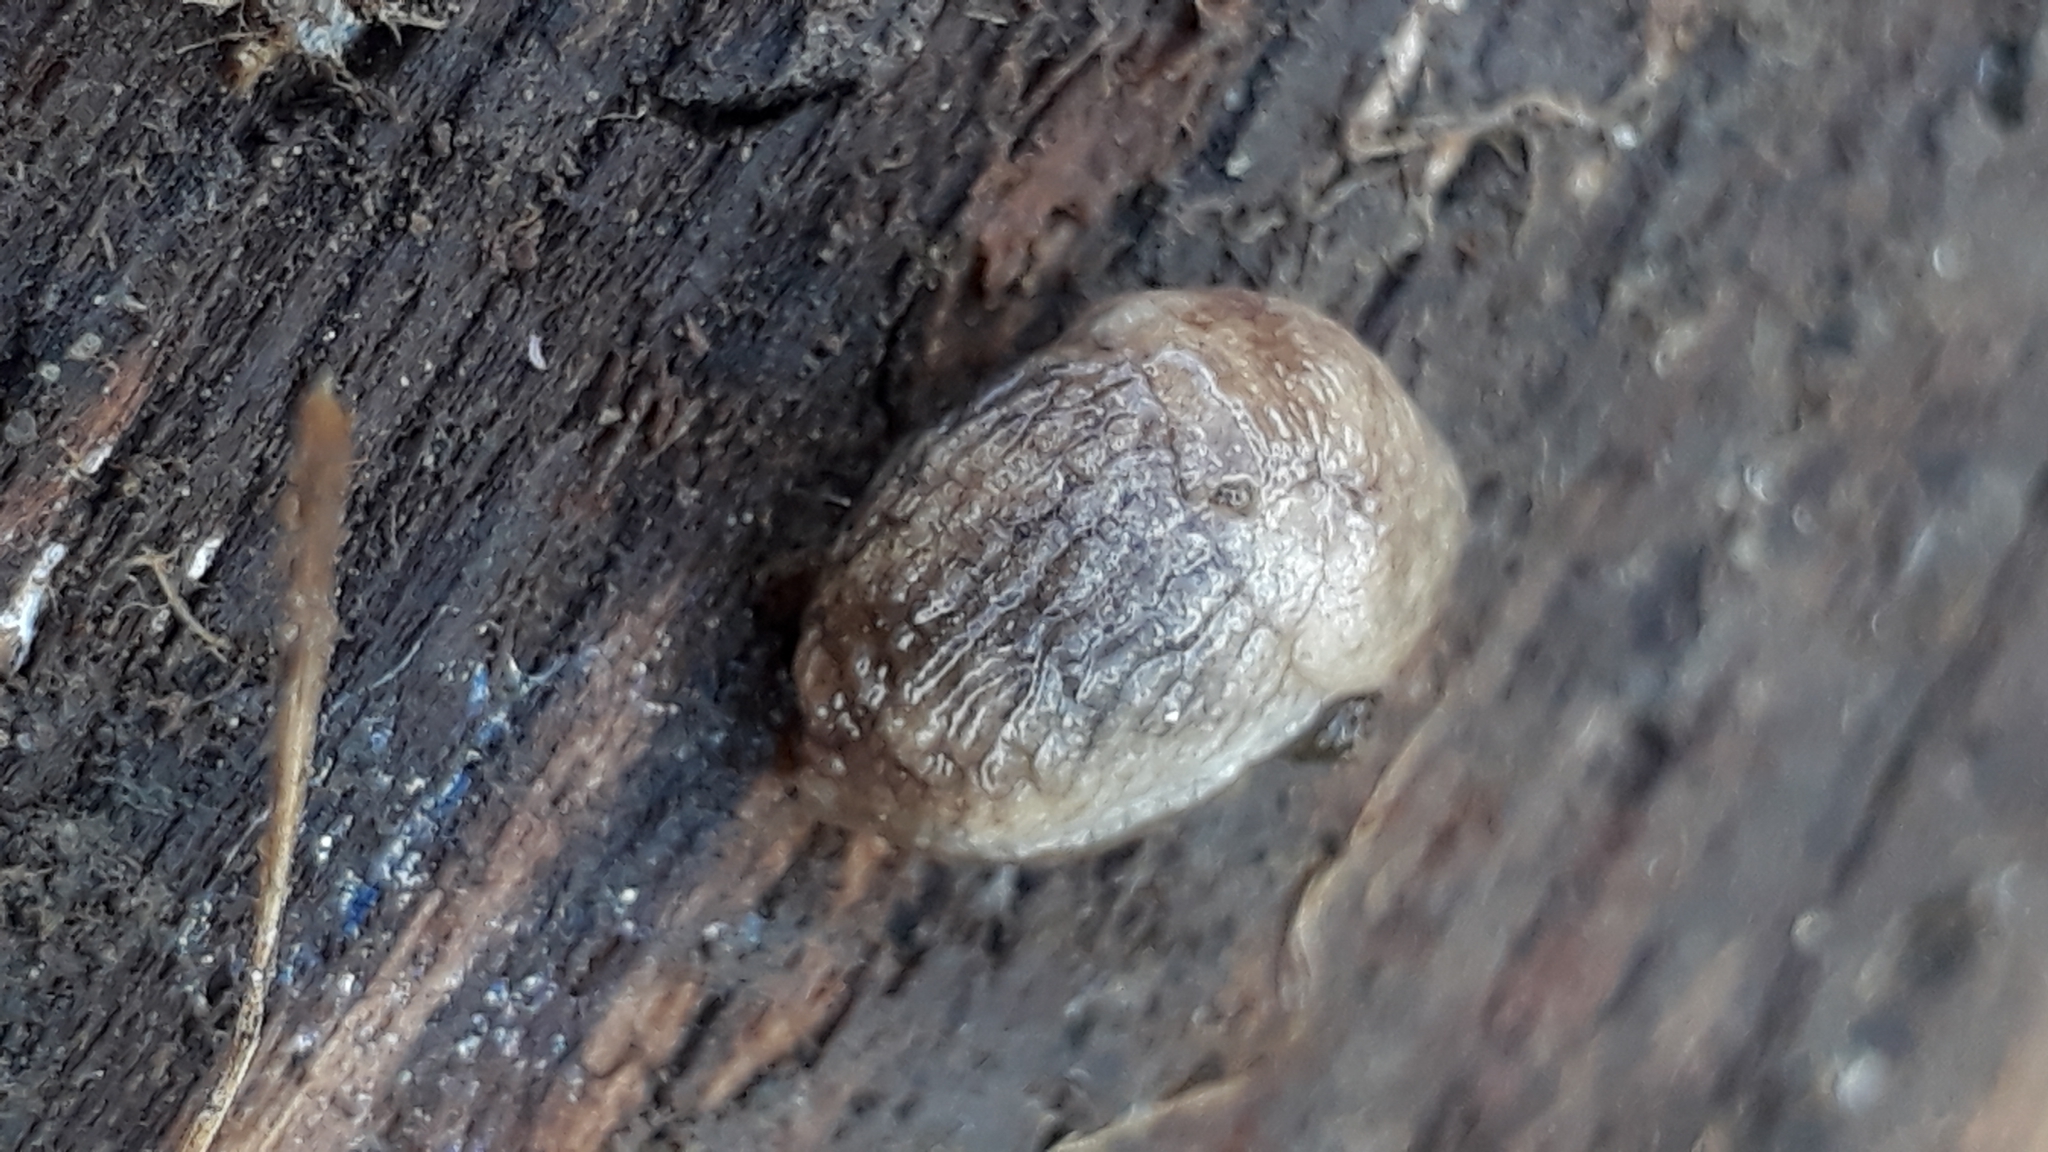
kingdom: Animalia
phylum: Mollusca
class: Gastropoda
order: Stylommatophora
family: Agriolimacidae
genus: Deroceras
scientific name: Deroceras reticulatum
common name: Gray field slug
